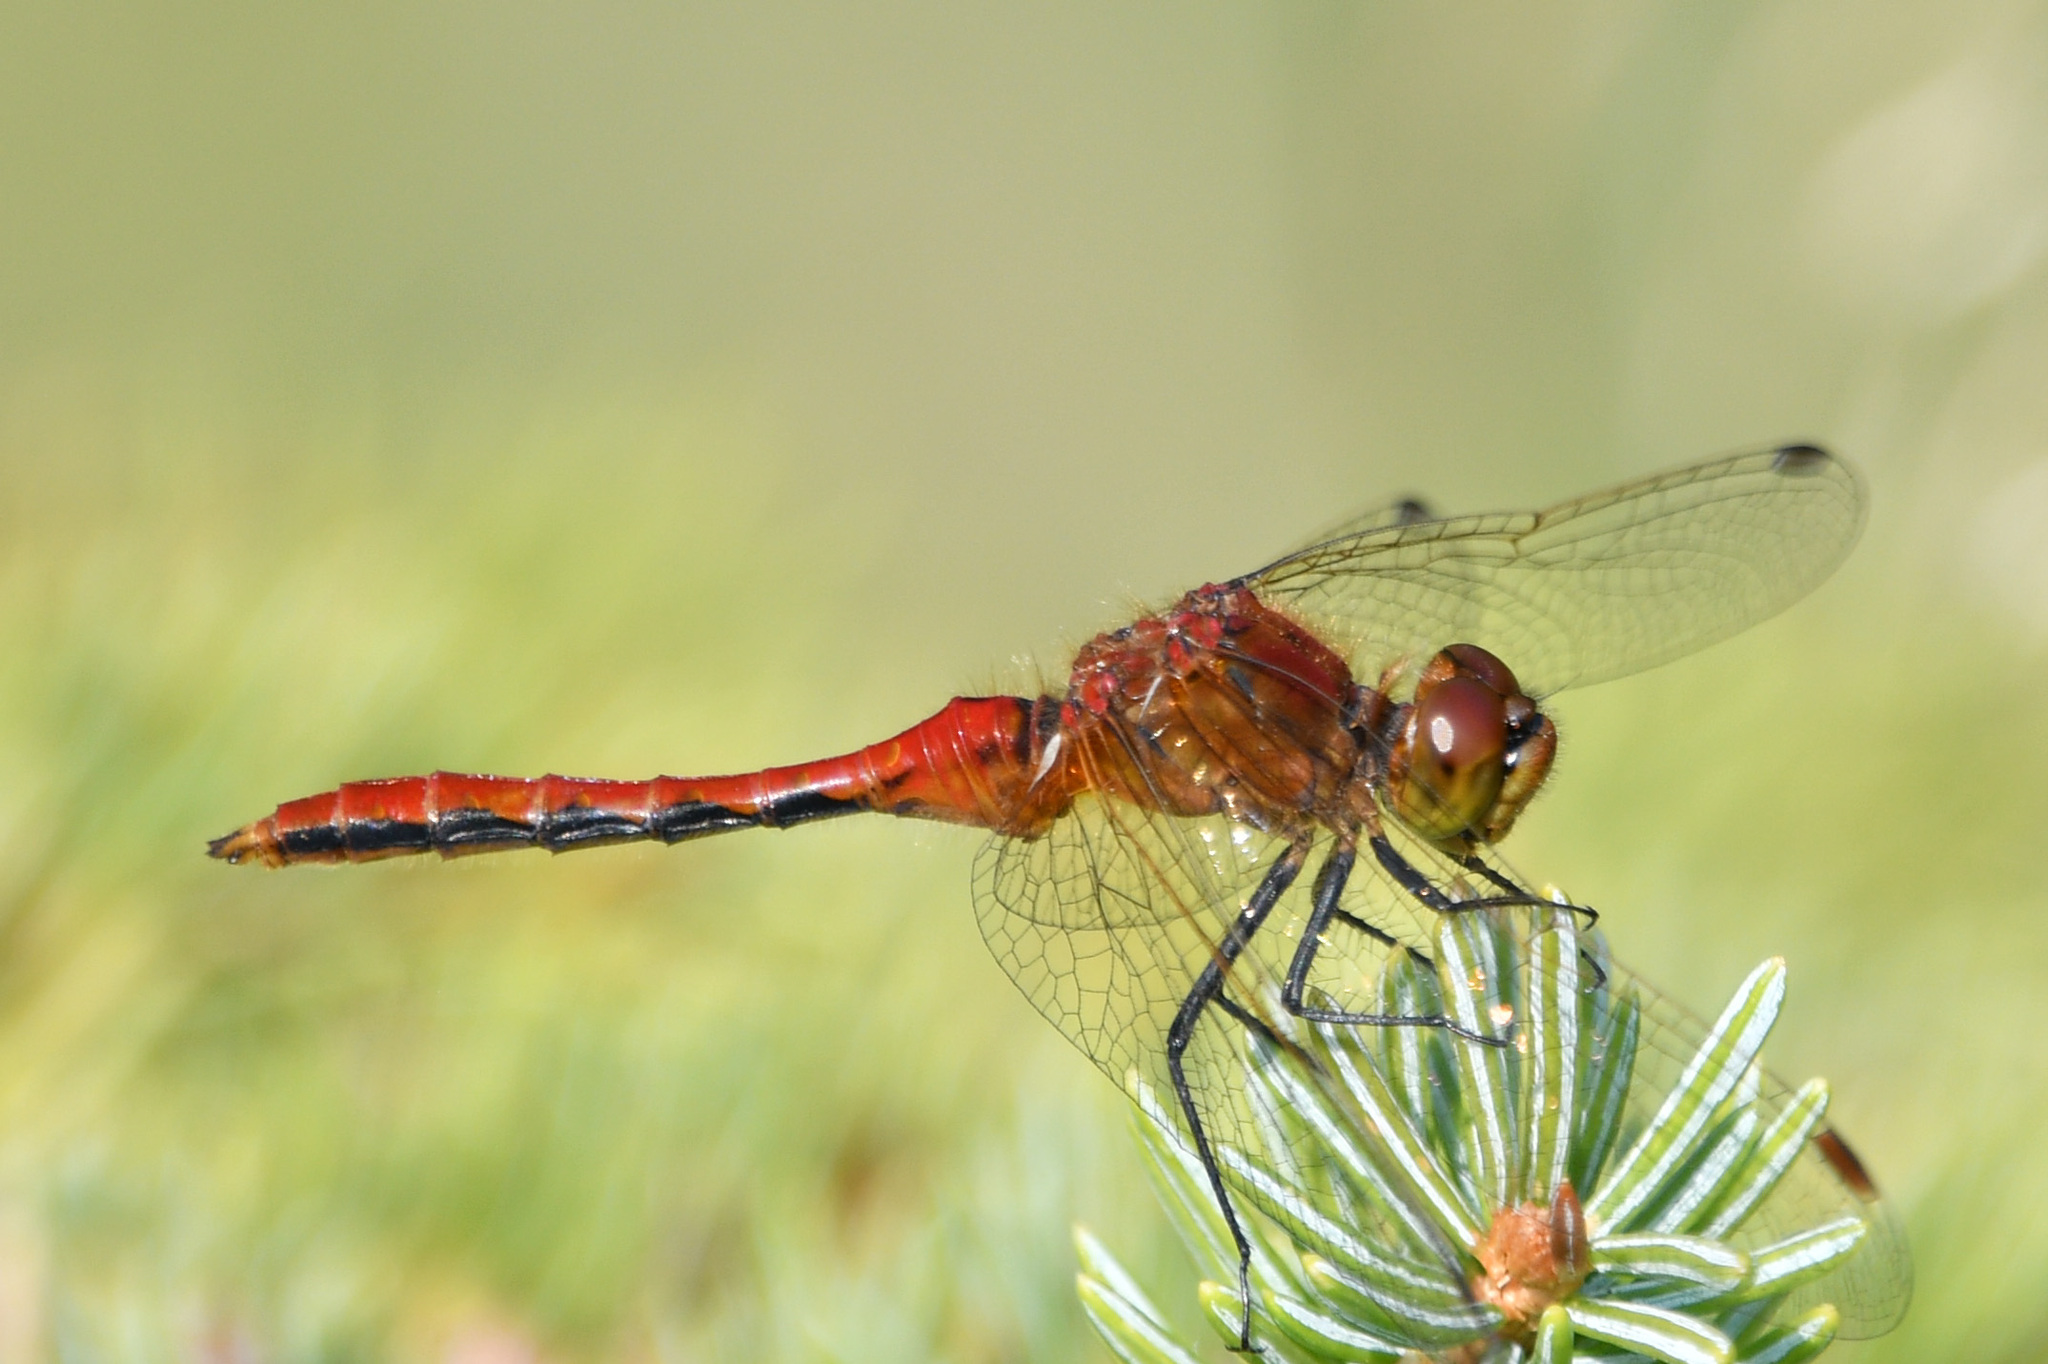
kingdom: Animalia
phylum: Arthropoda
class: Insecta
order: Odonata
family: Libellulidae
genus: Sympetrum
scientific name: Sympetrum internum
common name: Cherry-faced meadowhawk
